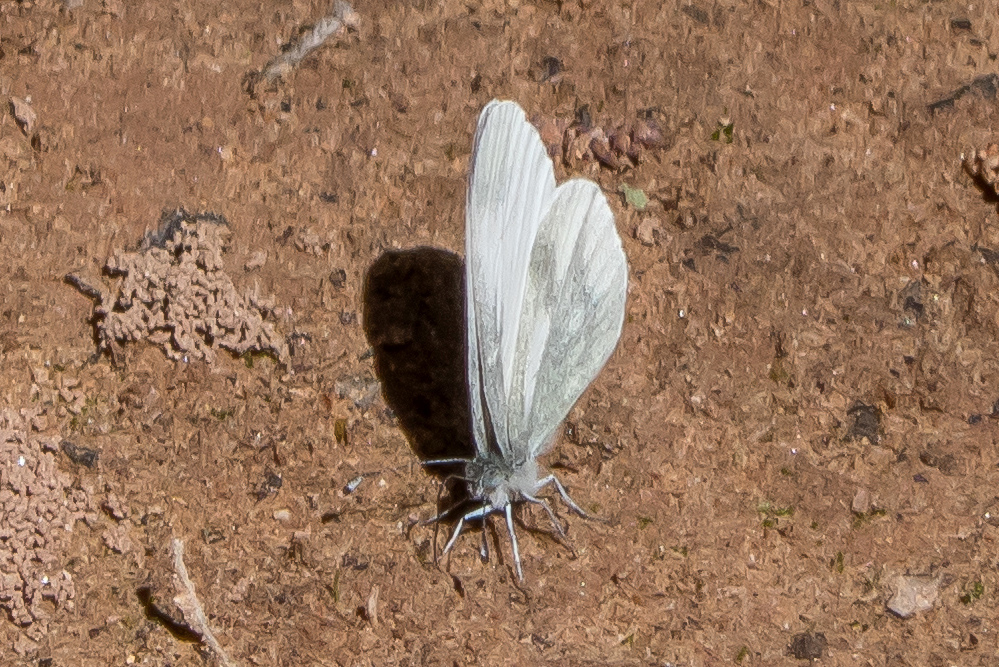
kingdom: Animalia
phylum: Arthropoda
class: Insecta
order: Lepidoptera
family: Pieridae
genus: Leptidea
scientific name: Leptidea sinapis
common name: Wood white
